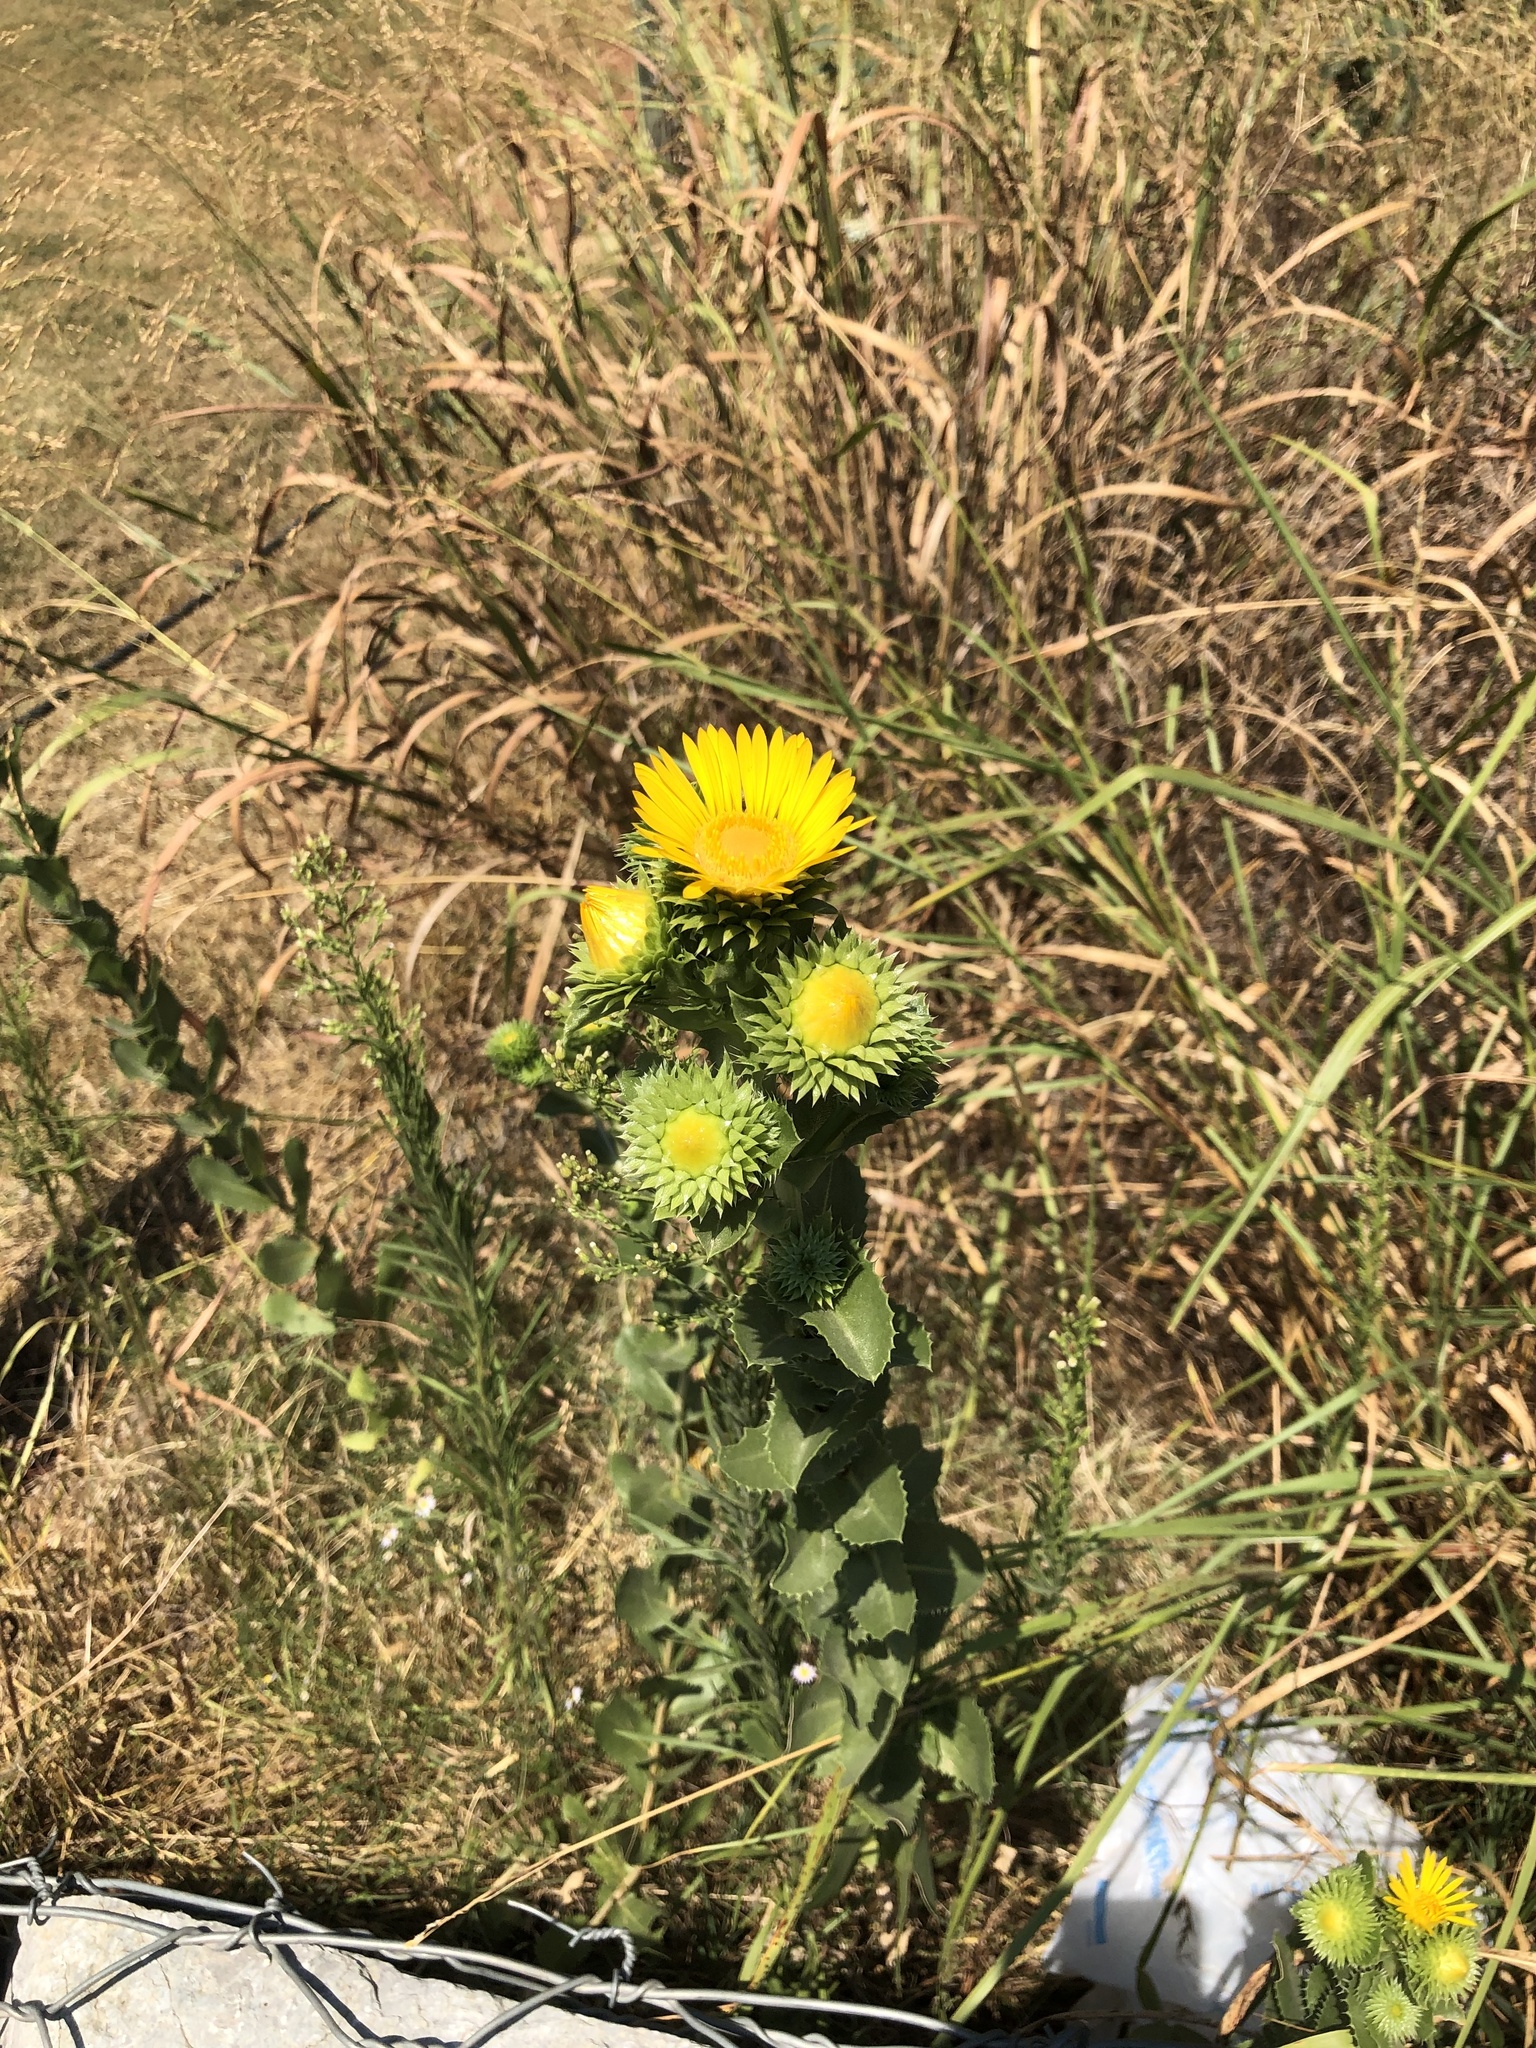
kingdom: Plantae
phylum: Tracheophyta
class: Magnoliopsida
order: Asterales
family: Asteraceae
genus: Grindelia
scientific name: Grindelia ciliata
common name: Goldenweed
